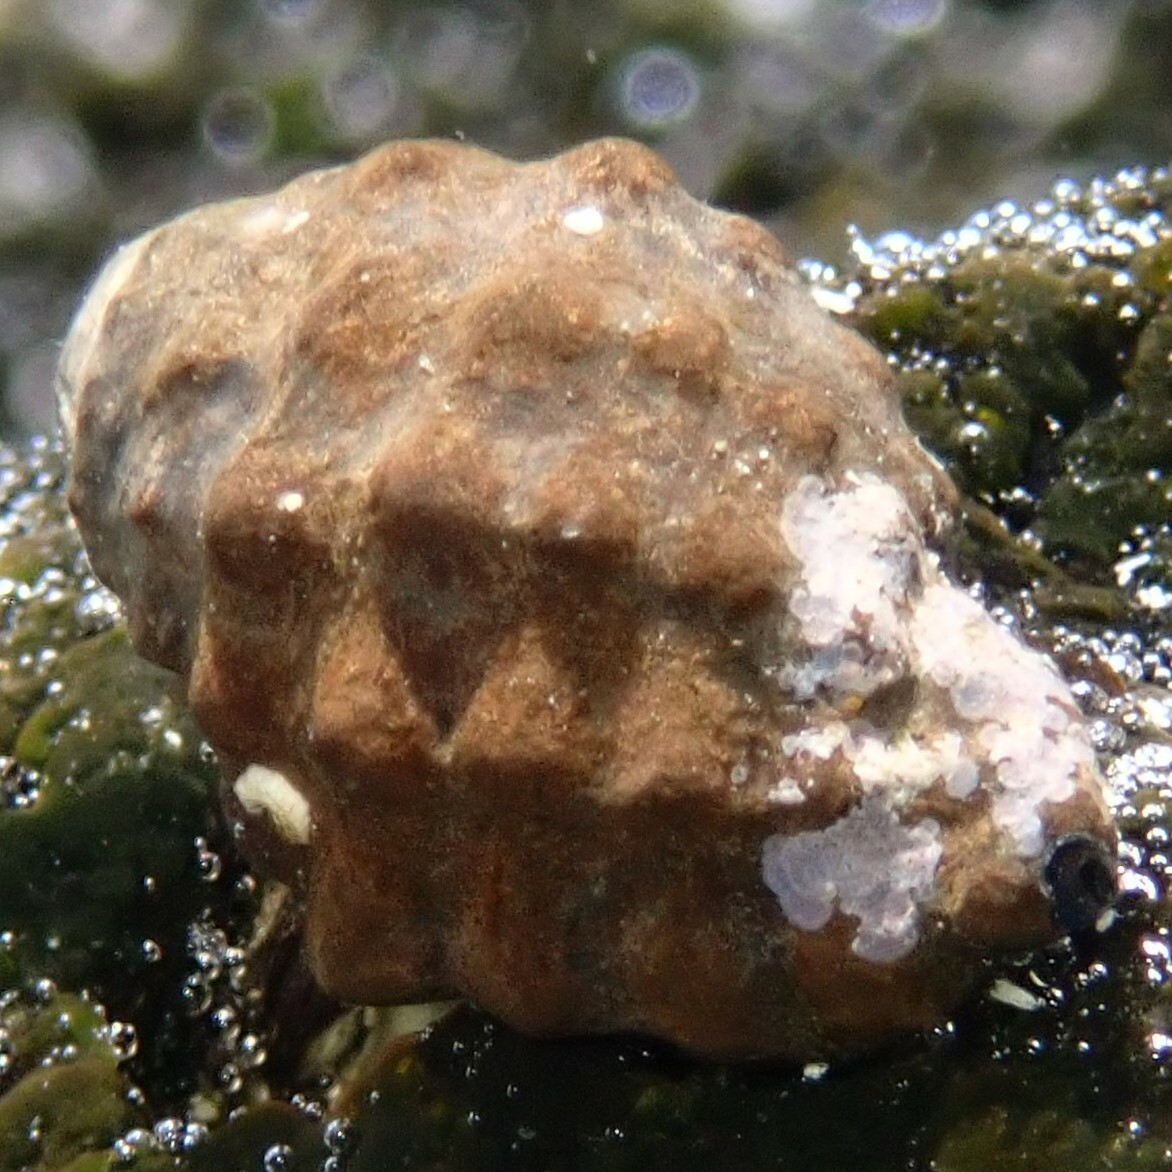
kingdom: Animalia
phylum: Mollusca
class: Gastropoda
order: Neogastropoda
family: Muricidae
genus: Tenguella
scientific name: Tenguella granulata
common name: Granular drupe
